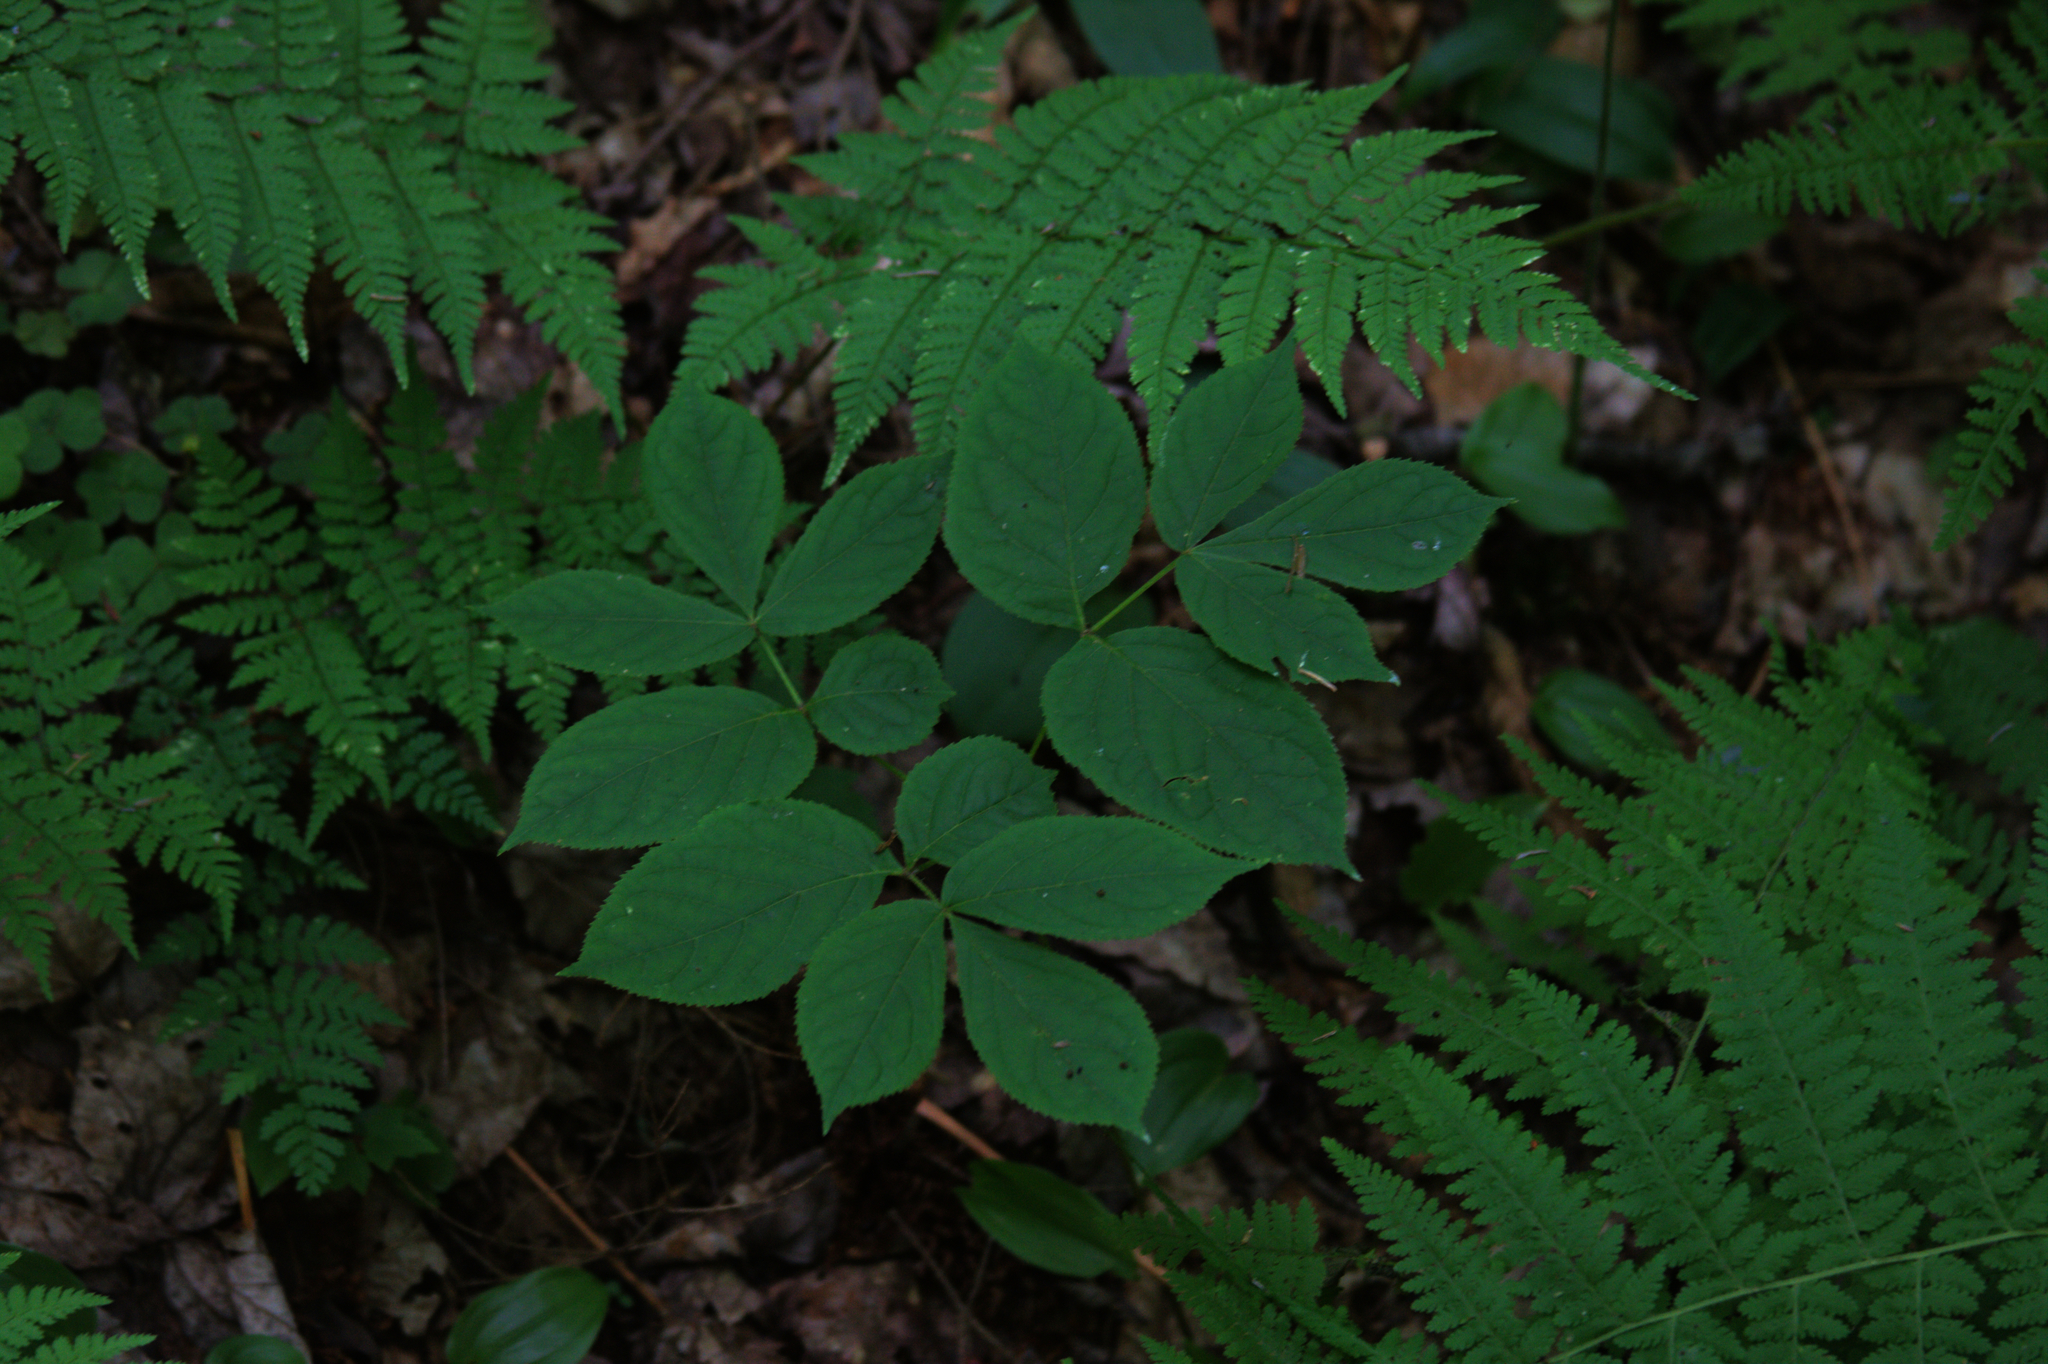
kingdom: Plantae
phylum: Tracheophyta
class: Magnoliopsida
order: Apiales
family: Araliaceae
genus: Aralia
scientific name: Aralia nudicaulis
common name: Wild sarsaparilla
